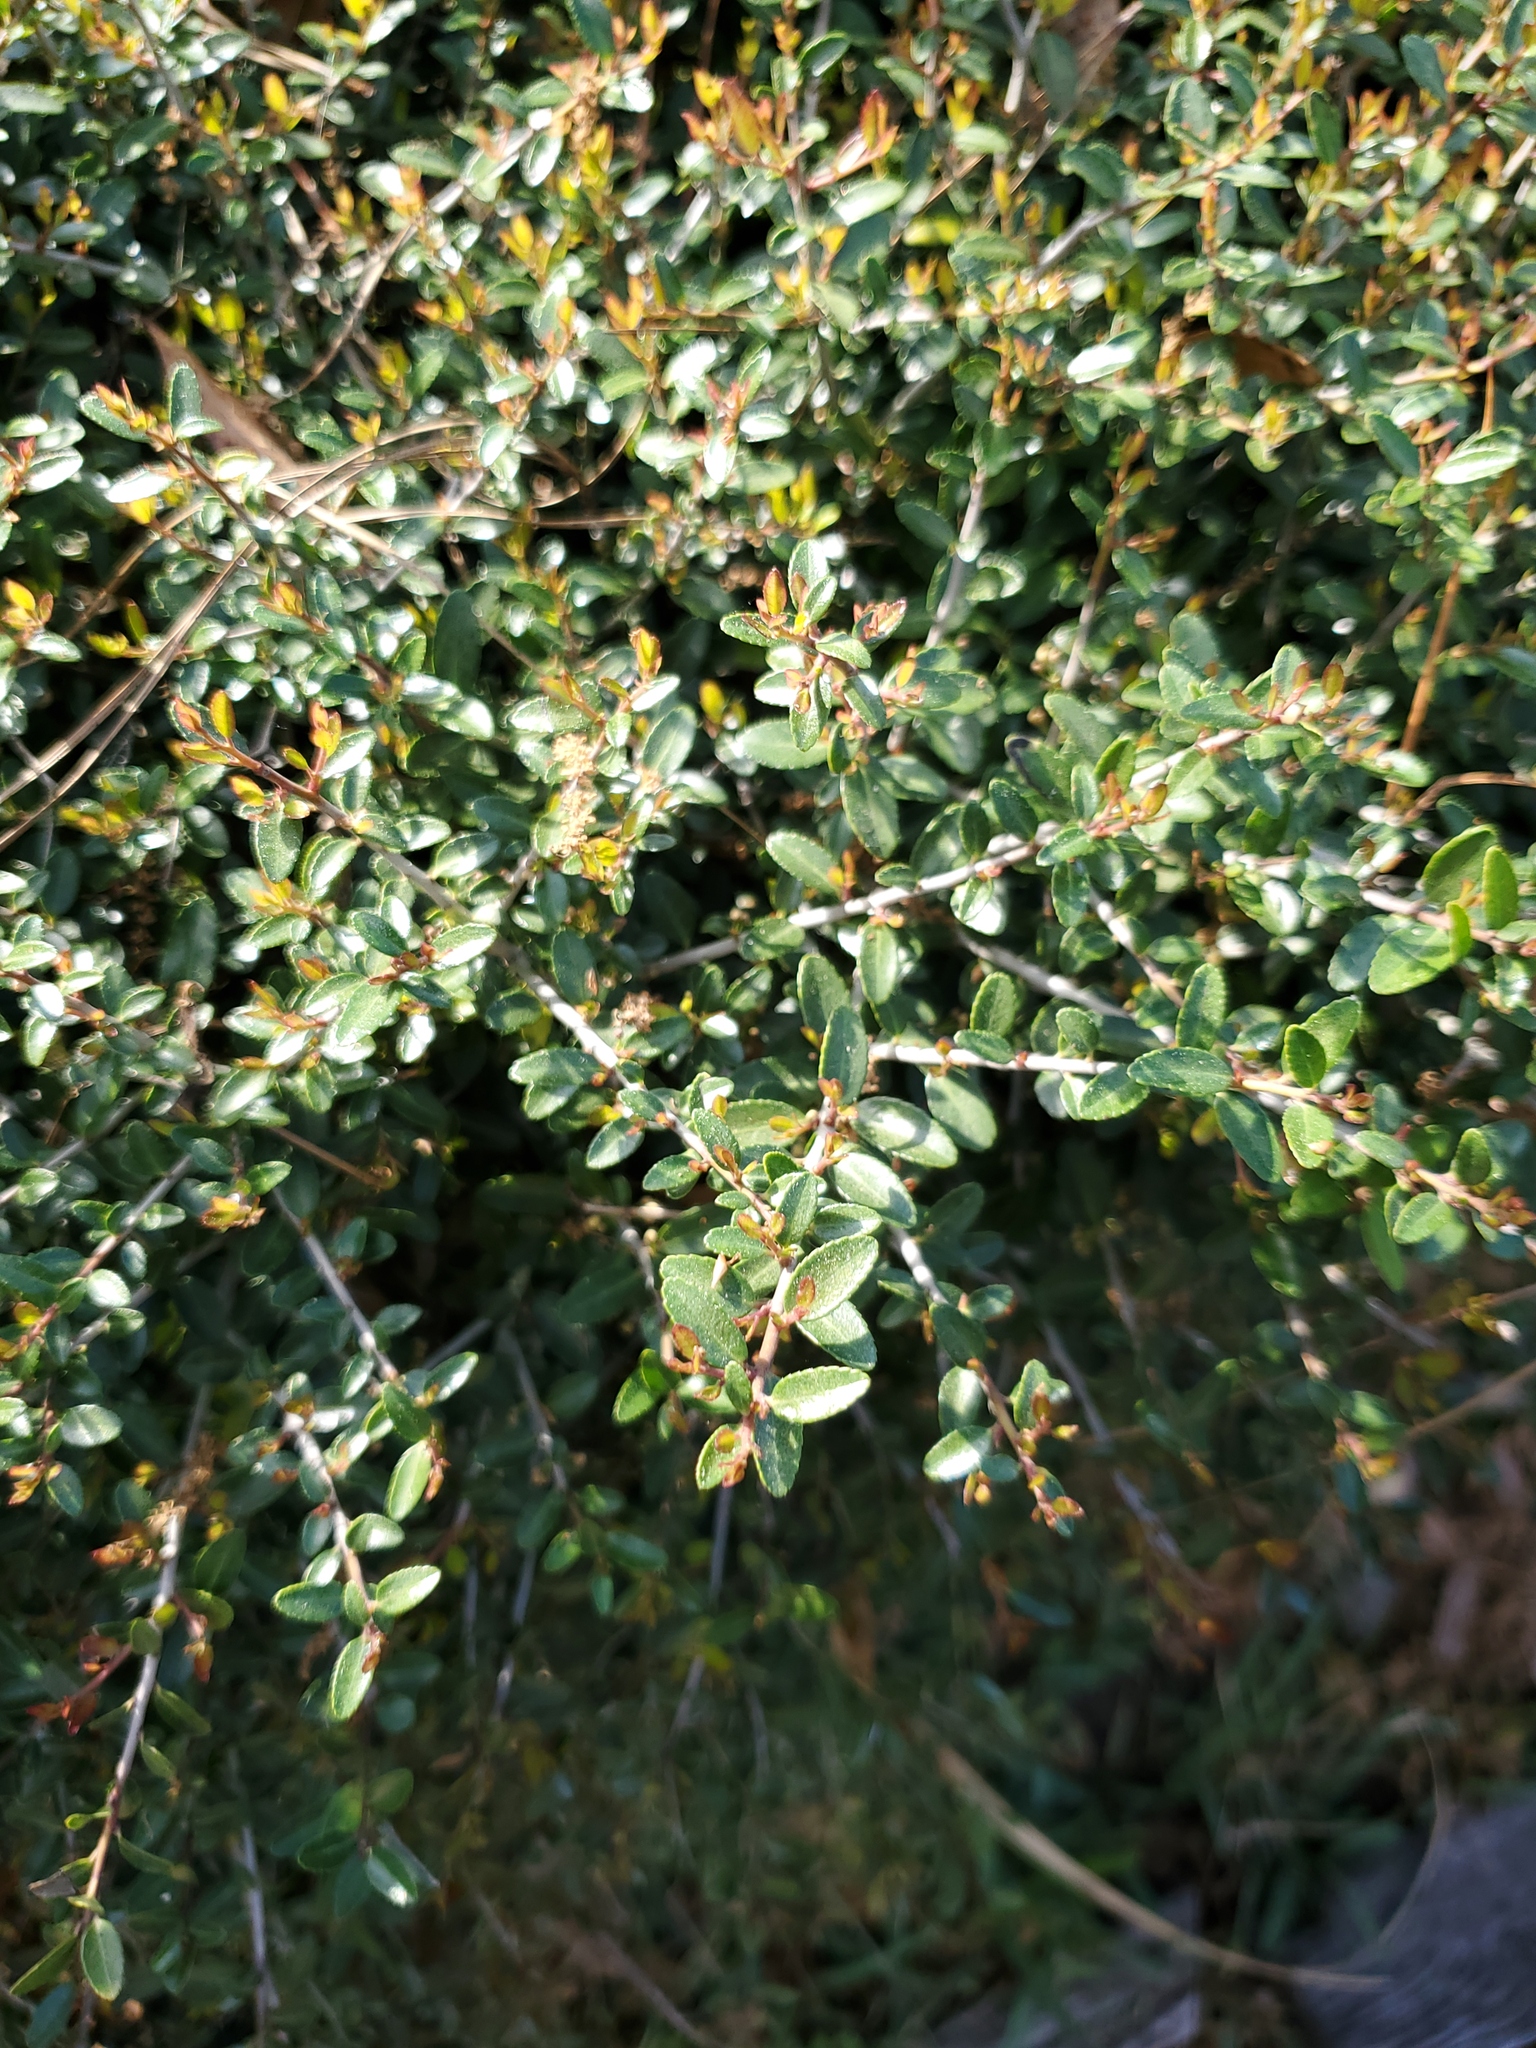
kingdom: Plantae
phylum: Tracheophyta
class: Magnoliopsida
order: Aquifoliales
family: Aquifoliaceae
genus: Ilex
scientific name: Ilex vomitoria
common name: Yaupon holly
